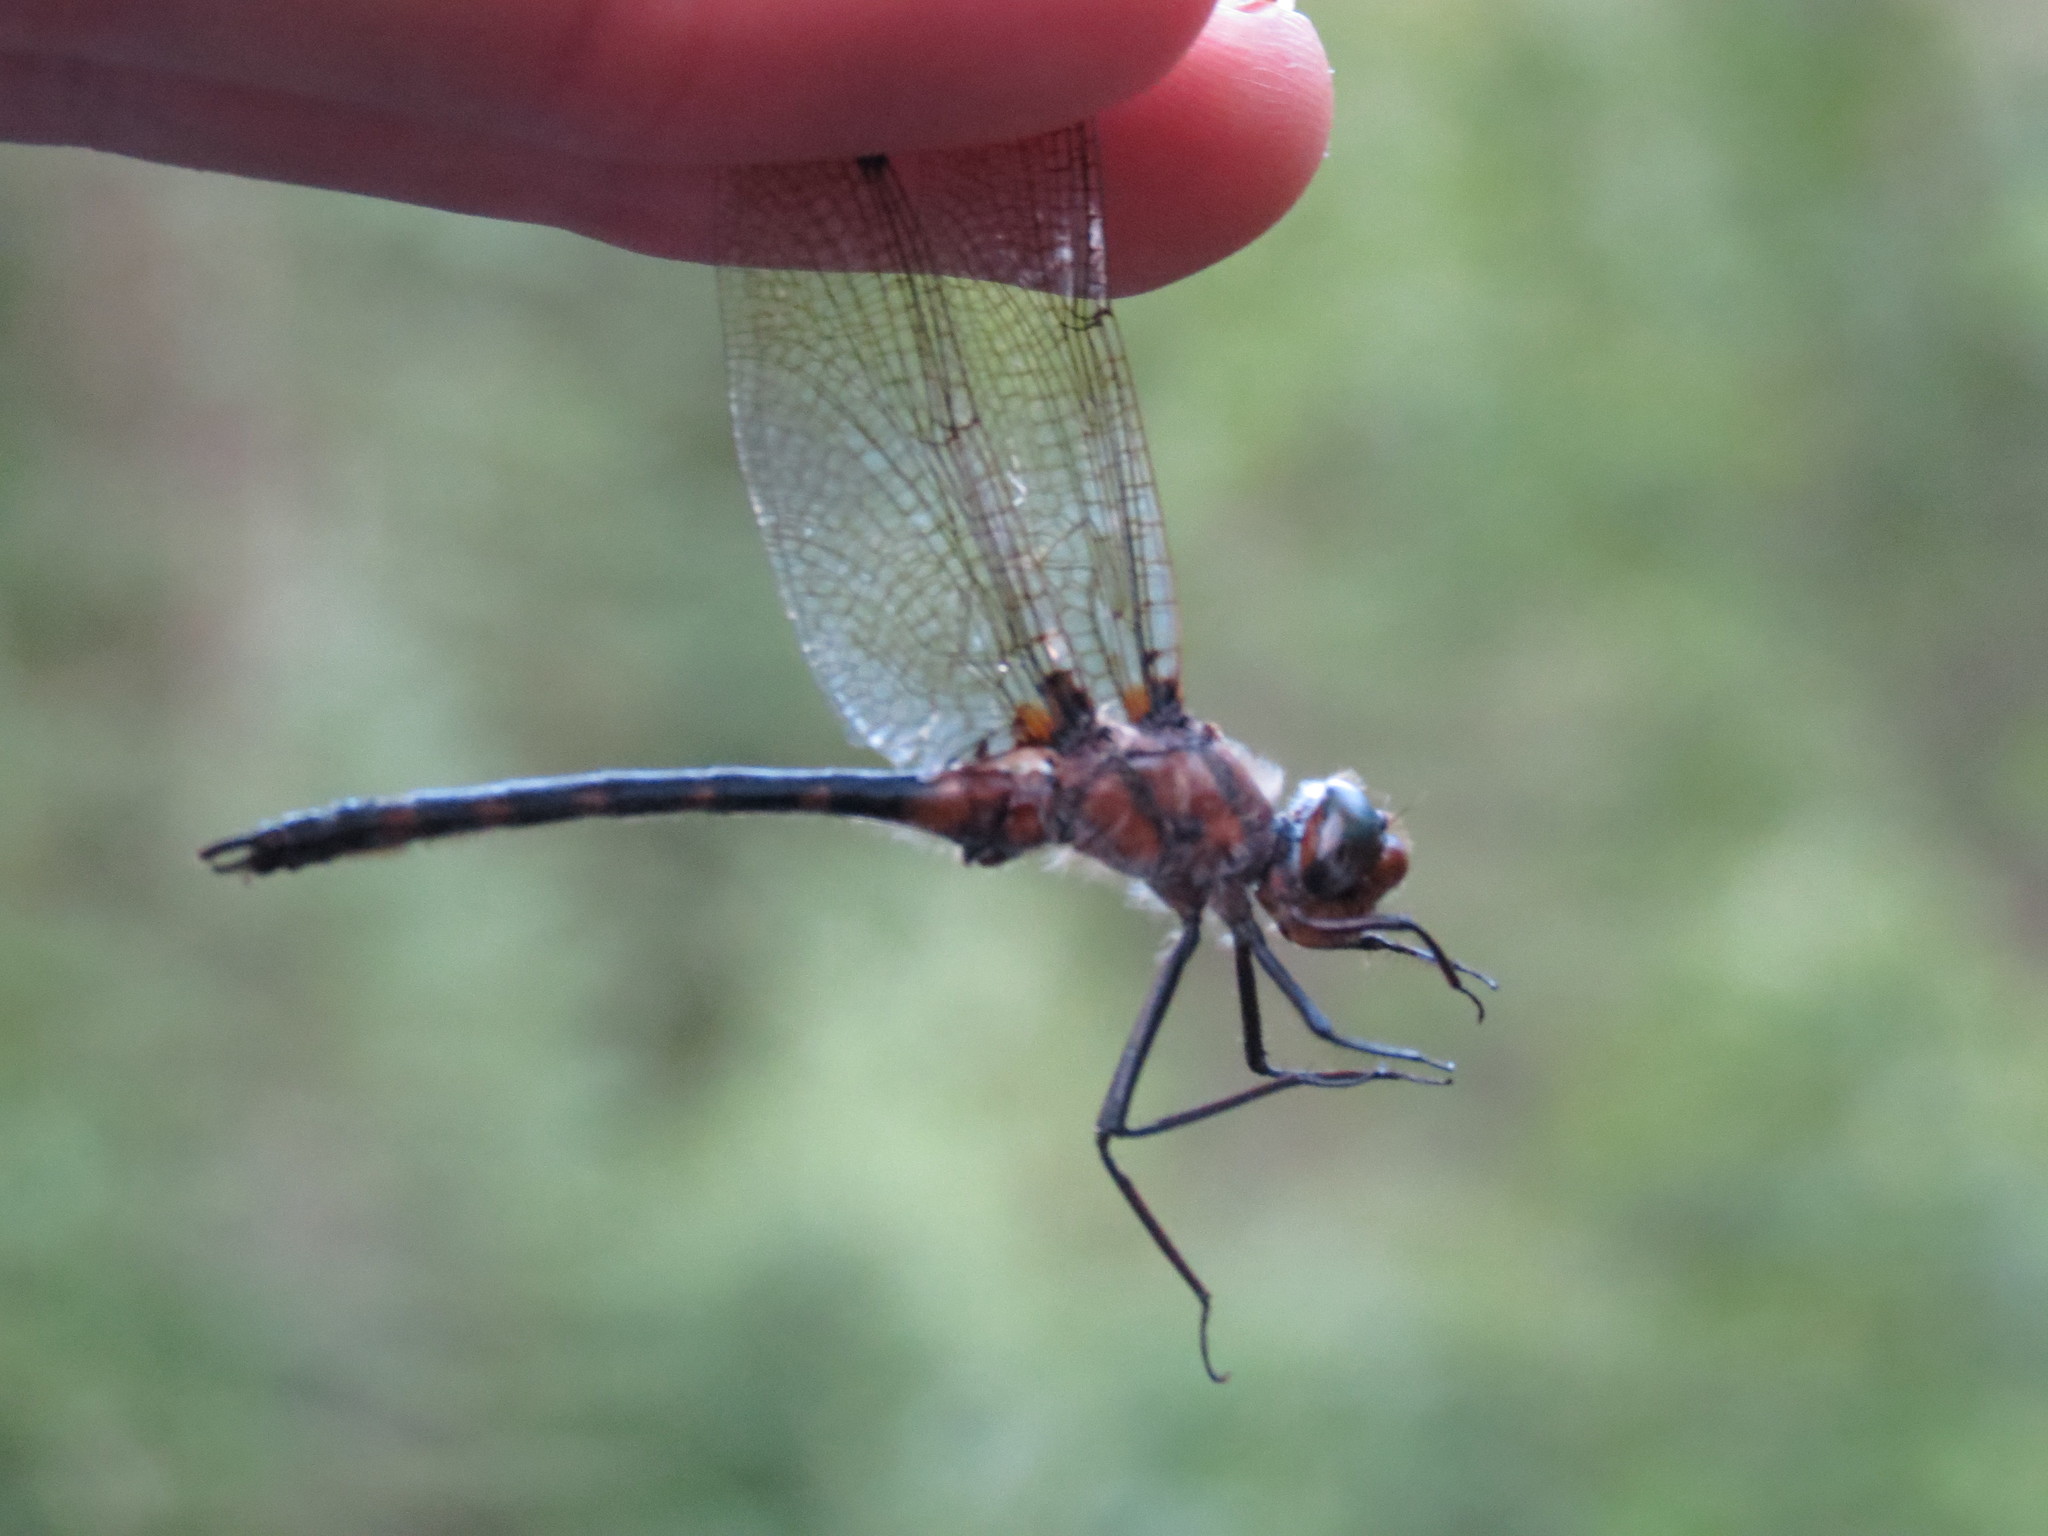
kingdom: Animalia
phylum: Arthropoda
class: Insecta
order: Odonata
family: Corduliidae
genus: Helocordulia
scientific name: Helocordulia uhleri
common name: Uhler's sundragon
